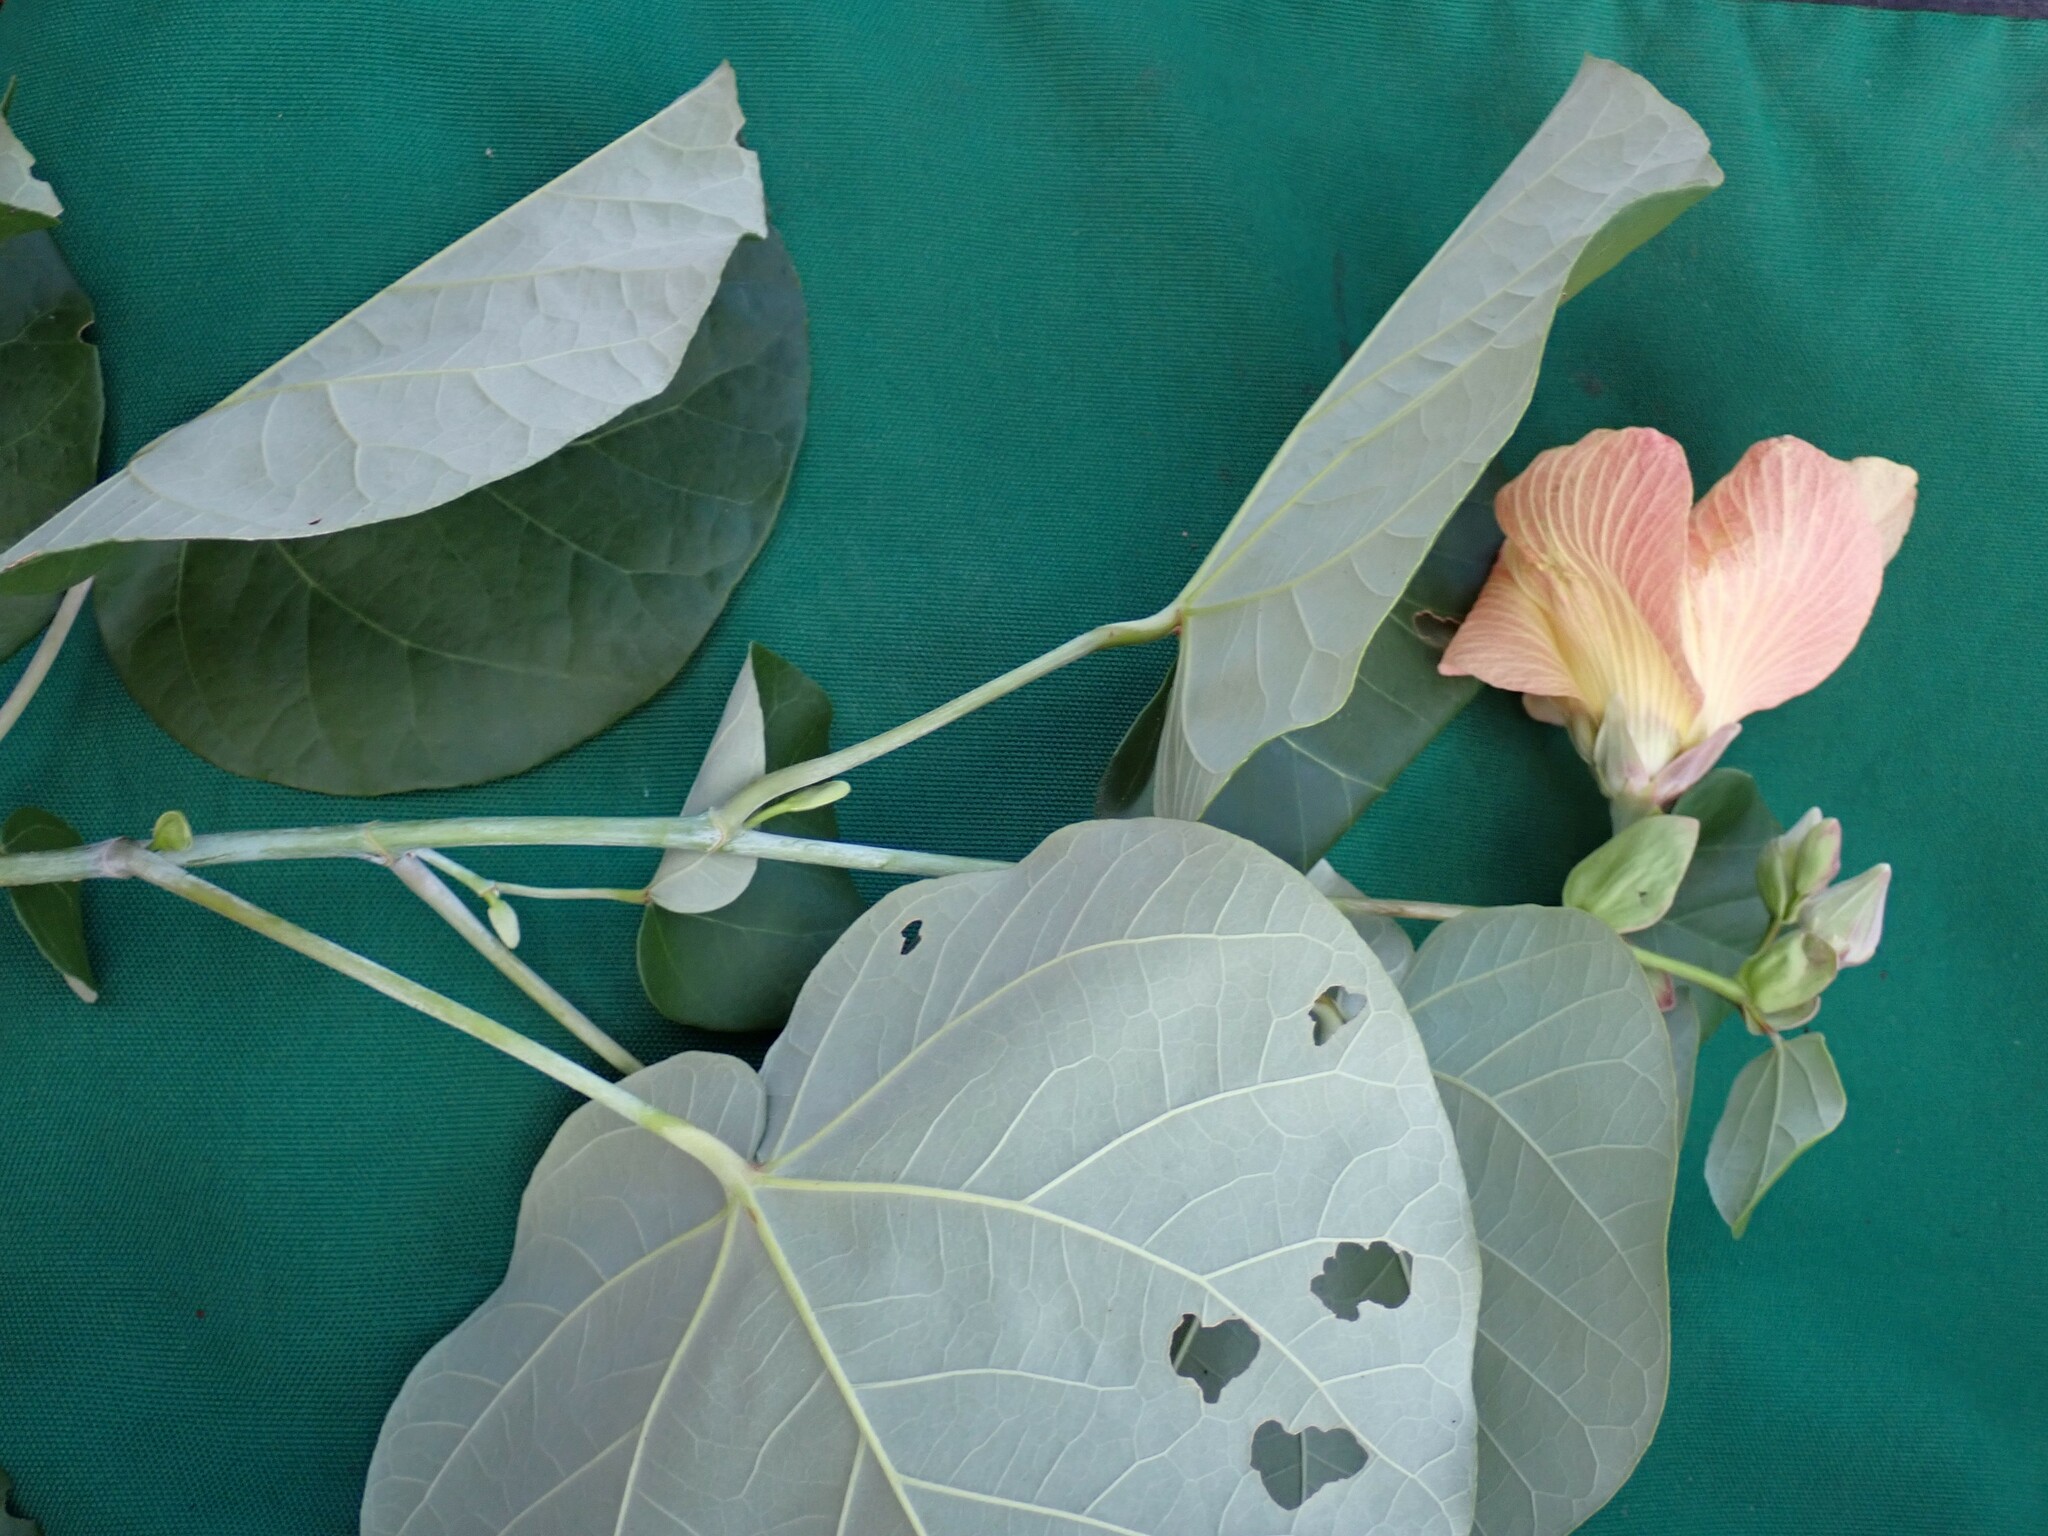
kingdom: Plantae
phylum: Tracheophyta
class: Magnoliopsida
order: Malvales
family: Malvaceae
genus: Talipariti
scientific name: Talipariti tiliaceum
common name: Sea hibiscus
